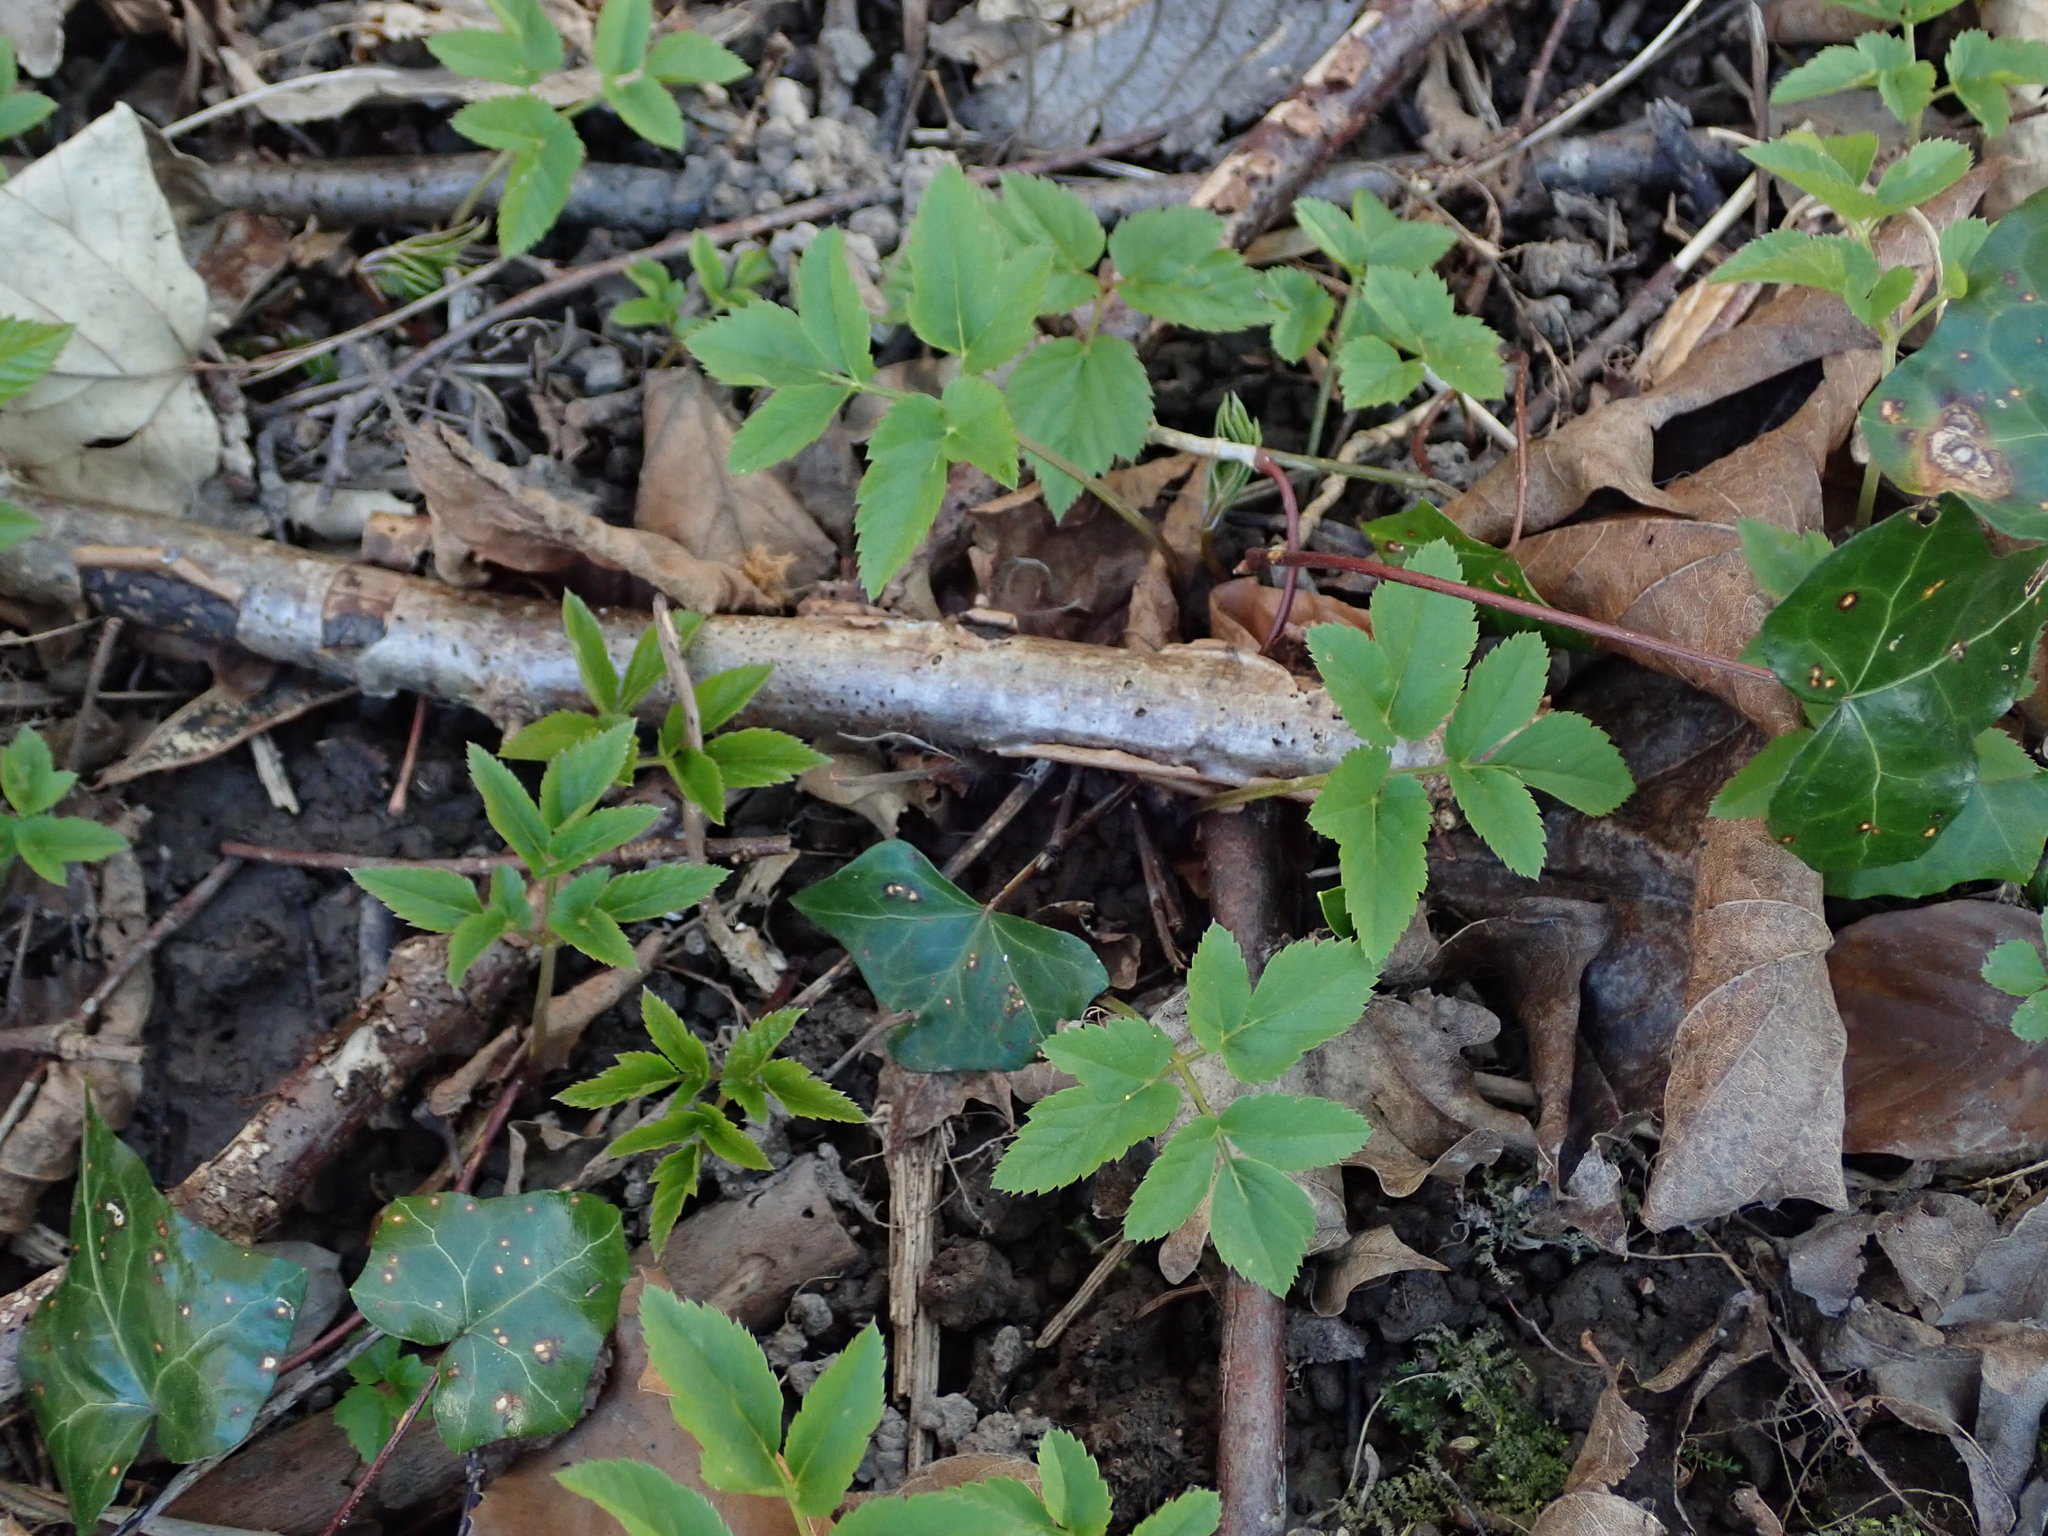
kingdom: Plantae
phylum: Tracheophyta
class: Magnoliopsida
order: Apiales
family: Apiaceae
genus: Aegopodium
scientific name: Aegopodium podagraria
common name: Ground-elder
